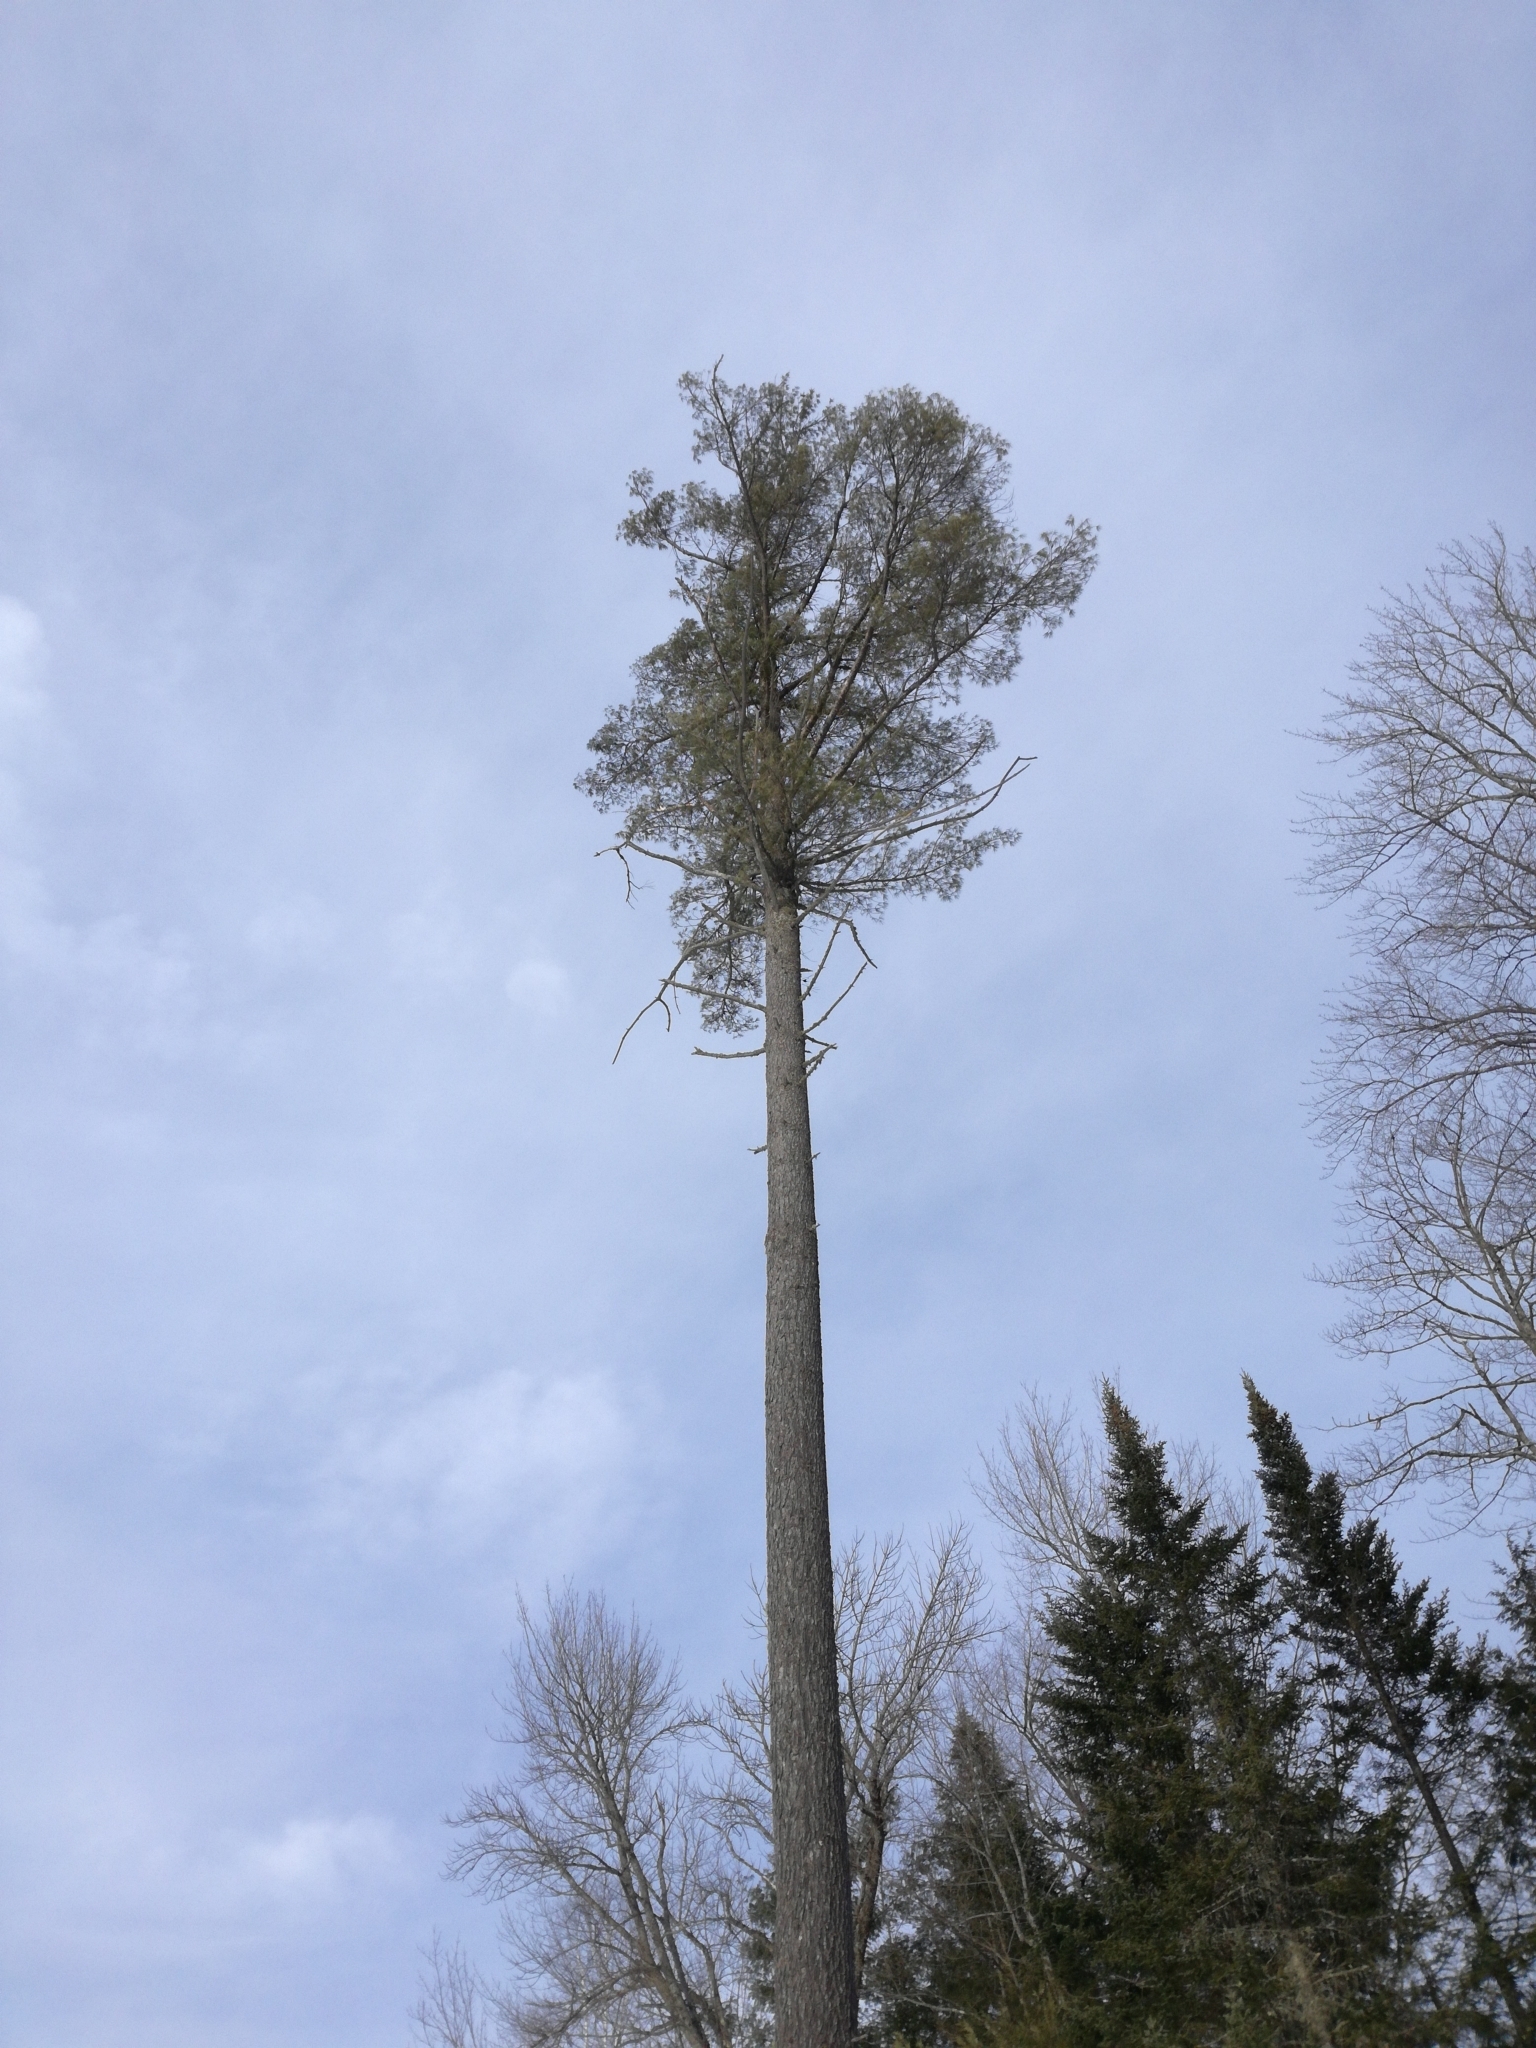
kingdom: Plantae
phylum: Tracheophyta
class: Pinopsida
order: Pinales
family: Pinaceae
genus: Pinus
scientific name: Pinus strobus
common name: Weymouth pine
